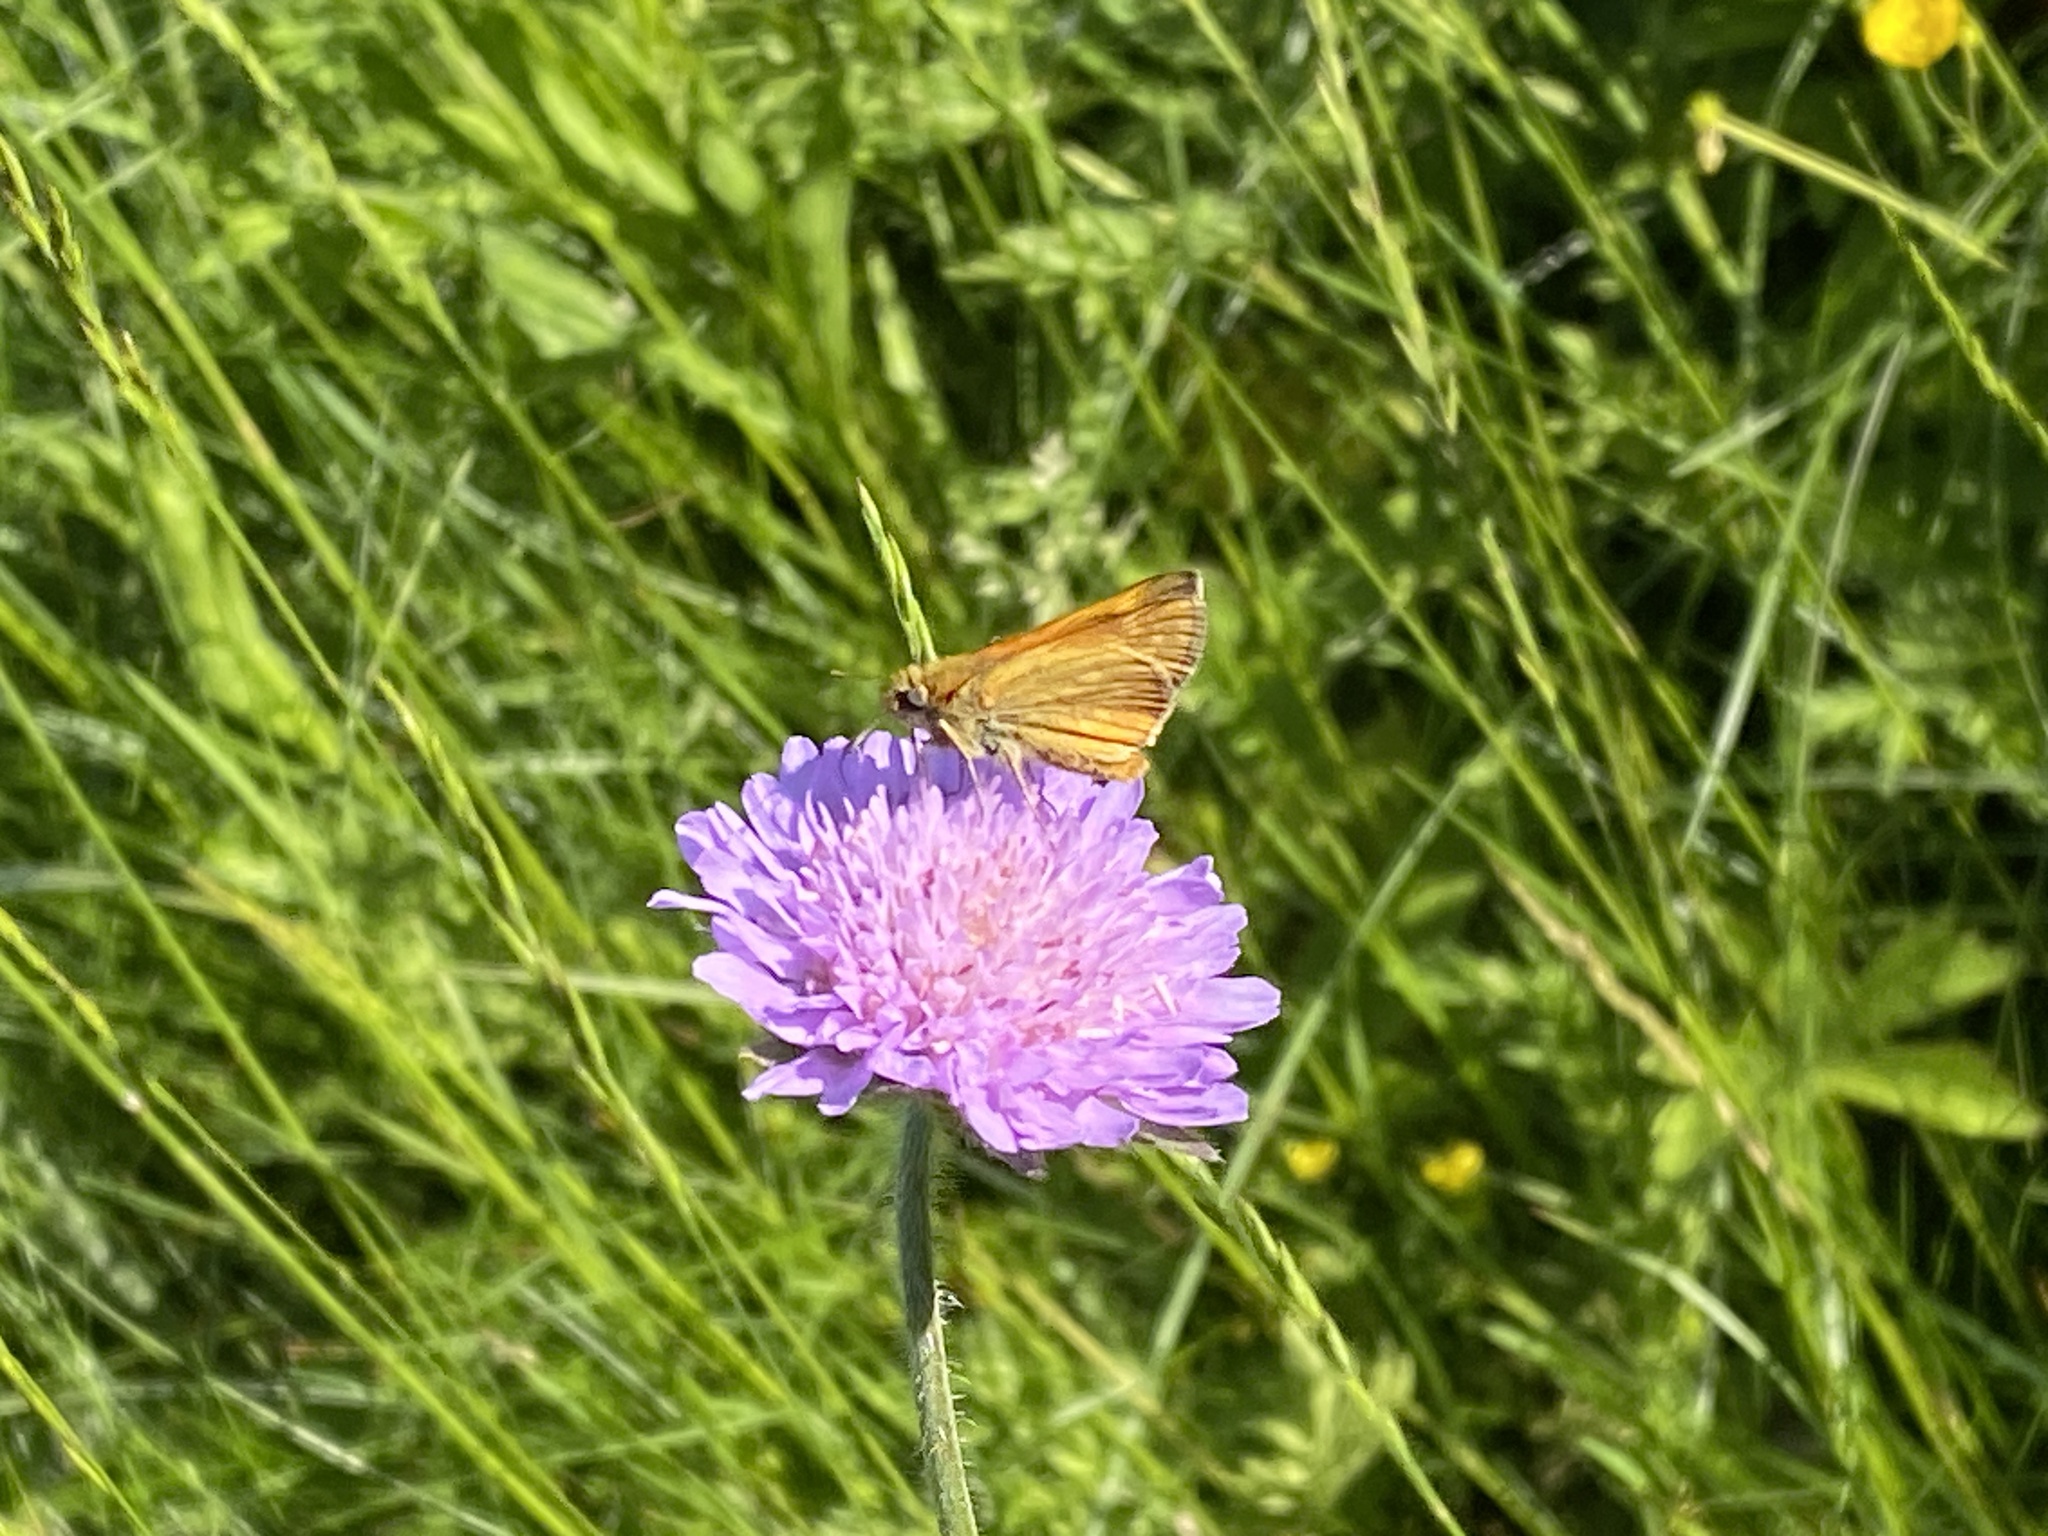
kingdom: Plantae
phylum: Tracheophyta
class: Magnoliopsida
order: Dipsacales
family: Caprifoliaceae
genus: Knautia
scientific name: Knautia arvensis
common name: Field scabiosa
